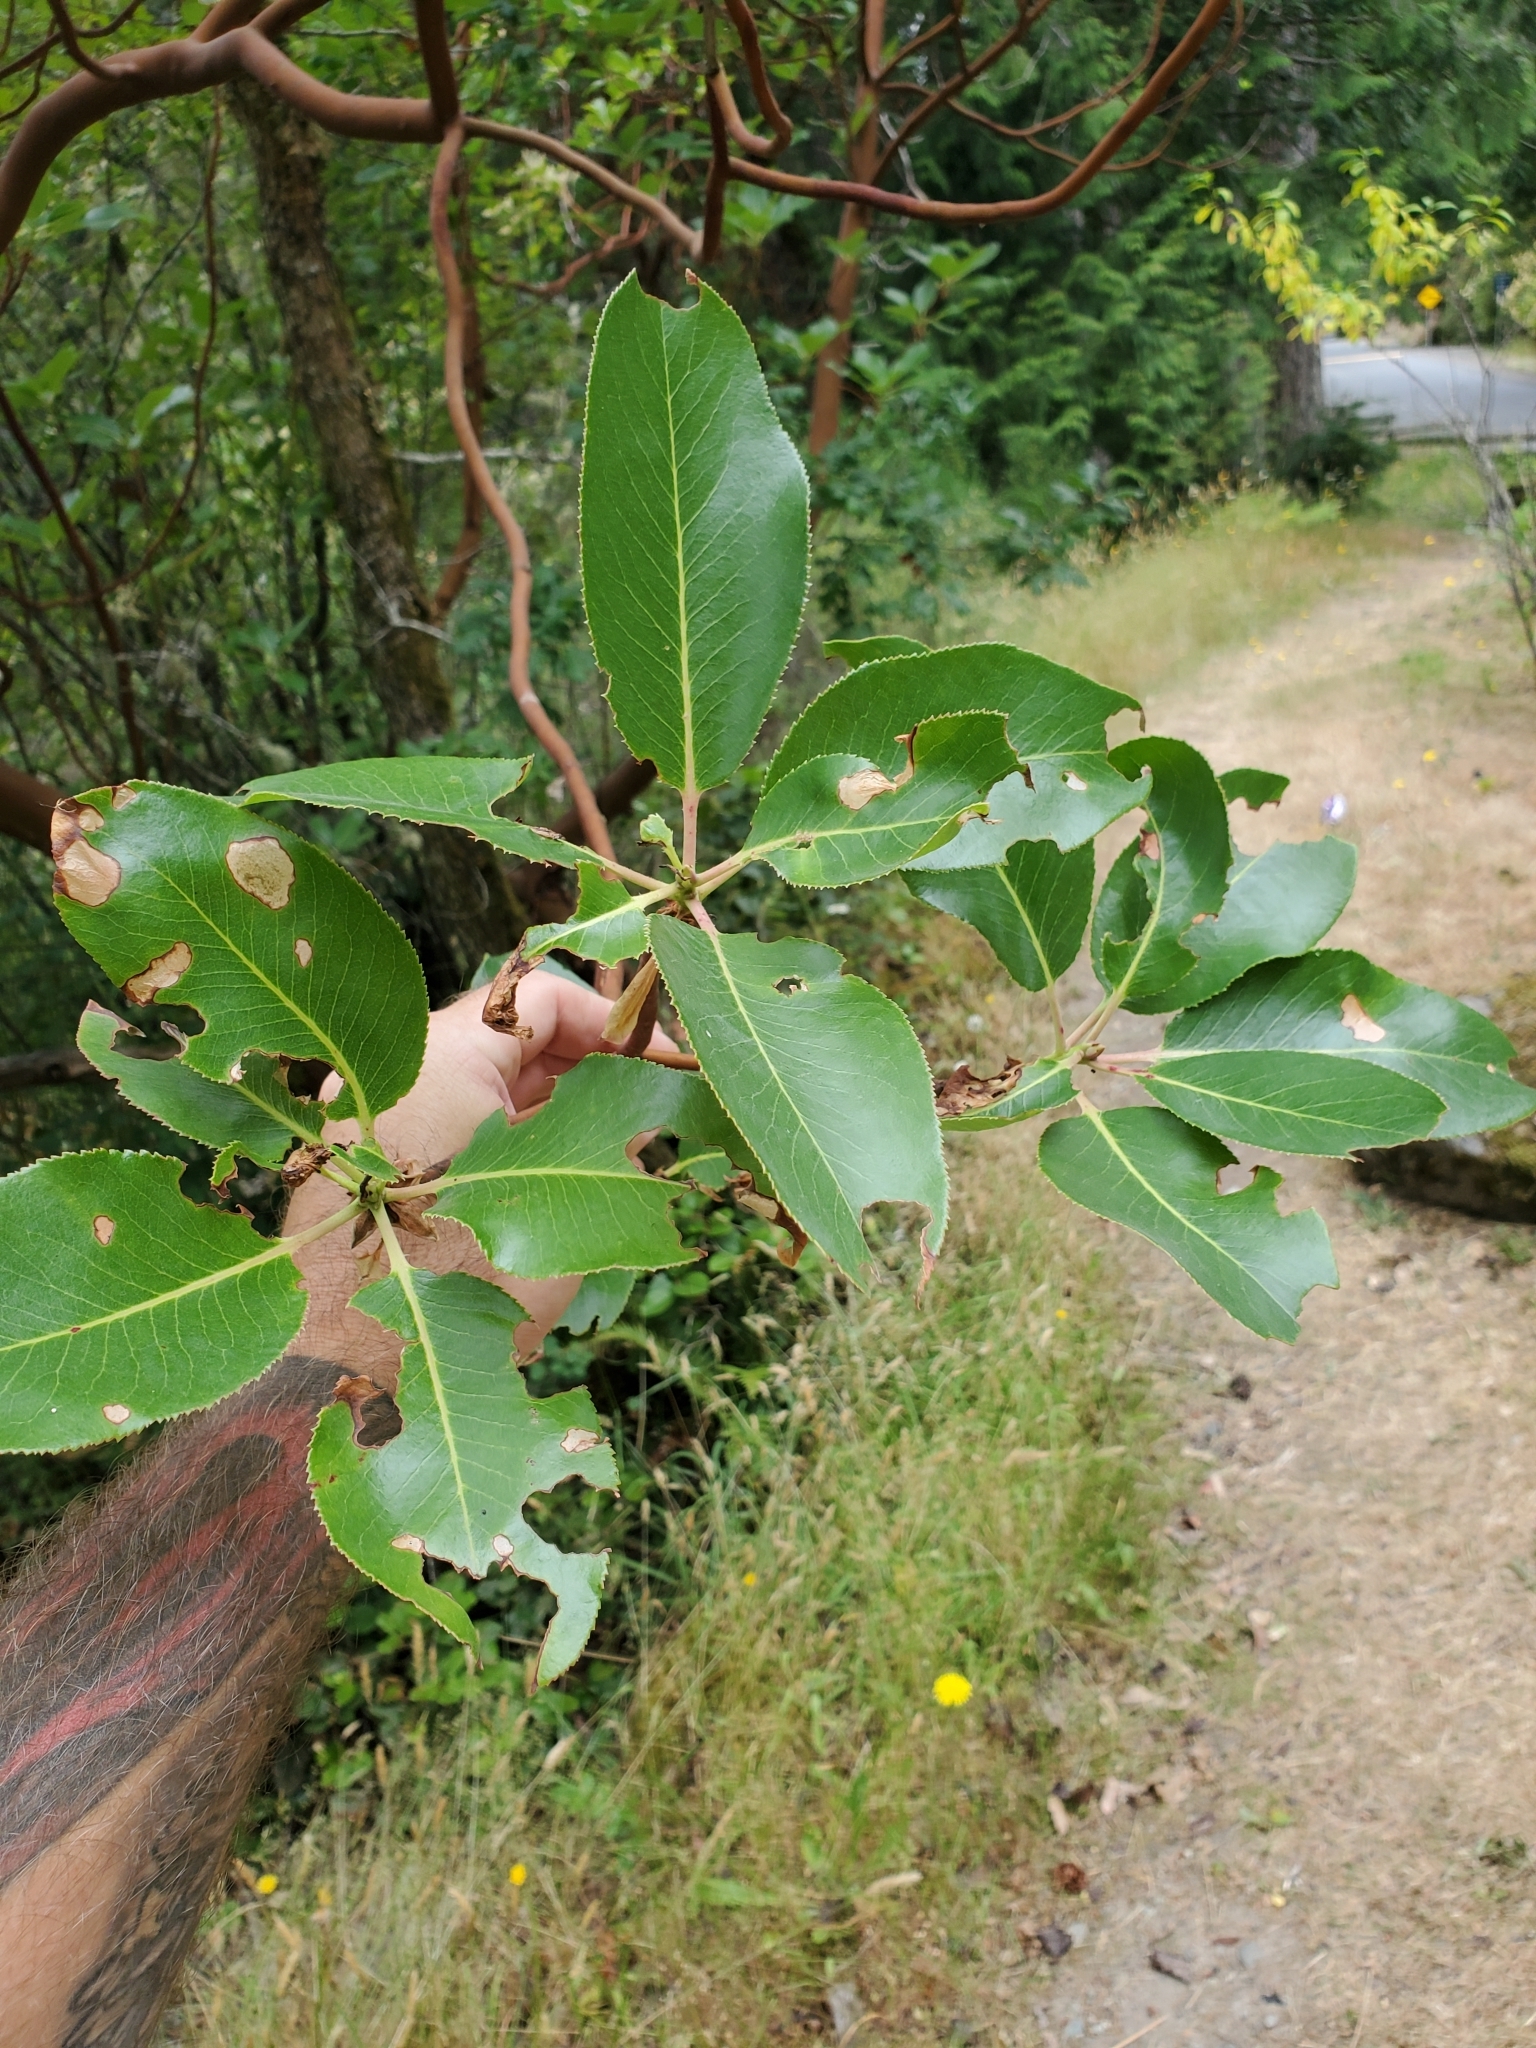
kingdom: Plantae
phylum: Tracheophyta
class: Magnoliopsida
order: Ericales
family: Ericaceae
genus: Arbutus
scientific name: Arbutus menziesii
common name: Pacific madrone
